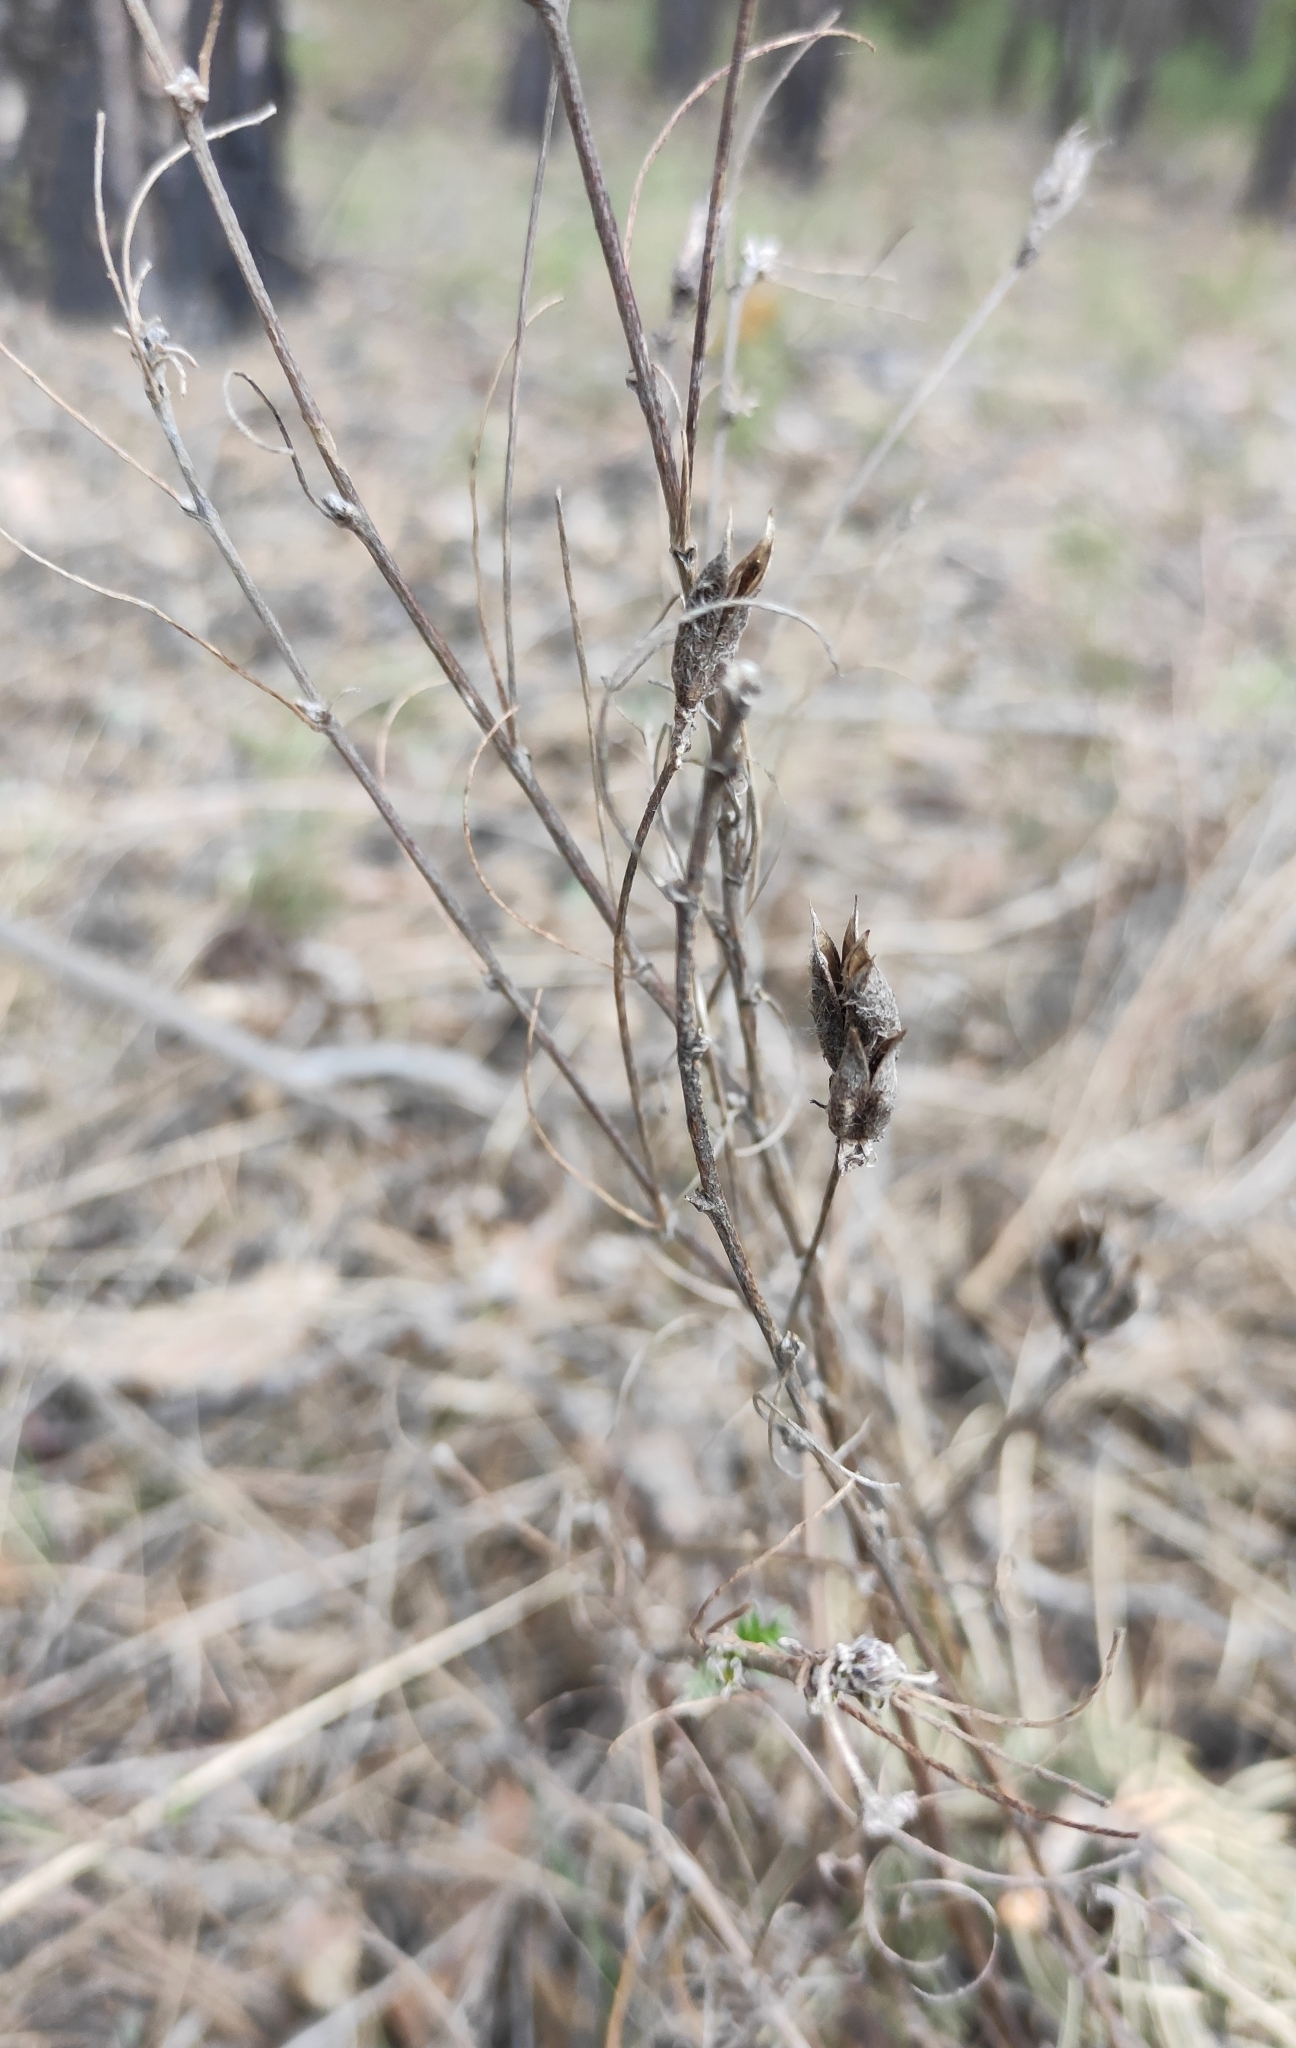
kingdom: Plantae
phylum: Tracheophyta
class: Magnoliopsida
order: Fabales
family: Fabaceae
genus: Astragalus
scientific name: Astragalus syriacus
